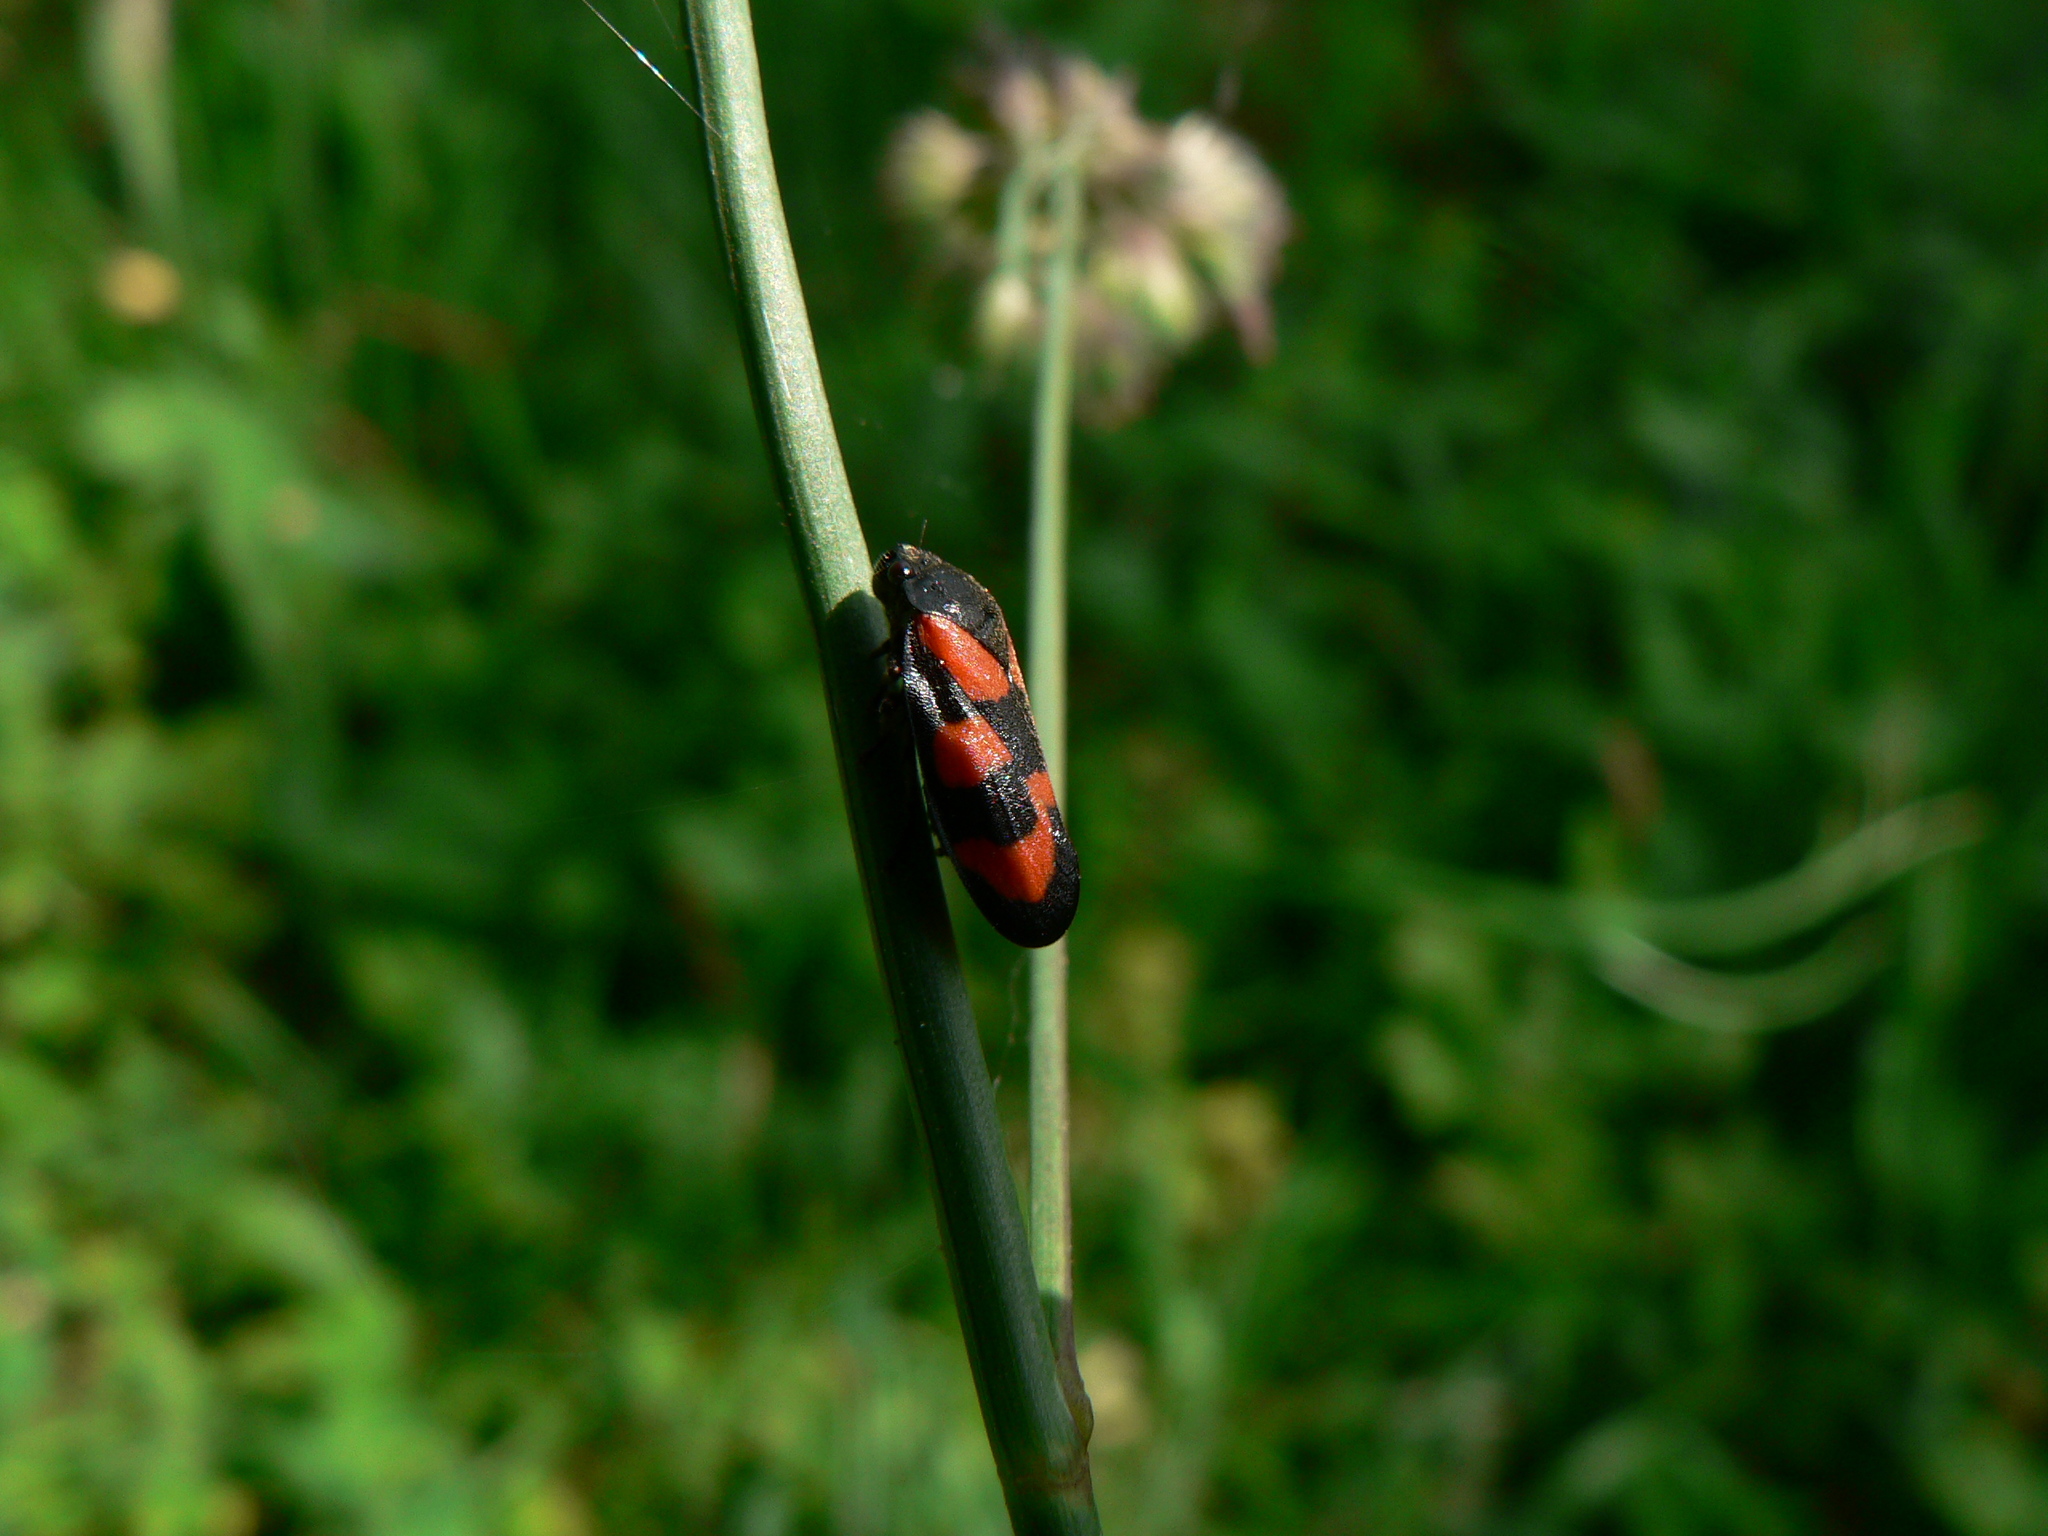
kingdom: Animalia
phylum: Arthropoda
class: Insecta
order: Hemiptera
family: Cercopidae
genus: Cercopis
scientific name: Cercopis vulnerata
